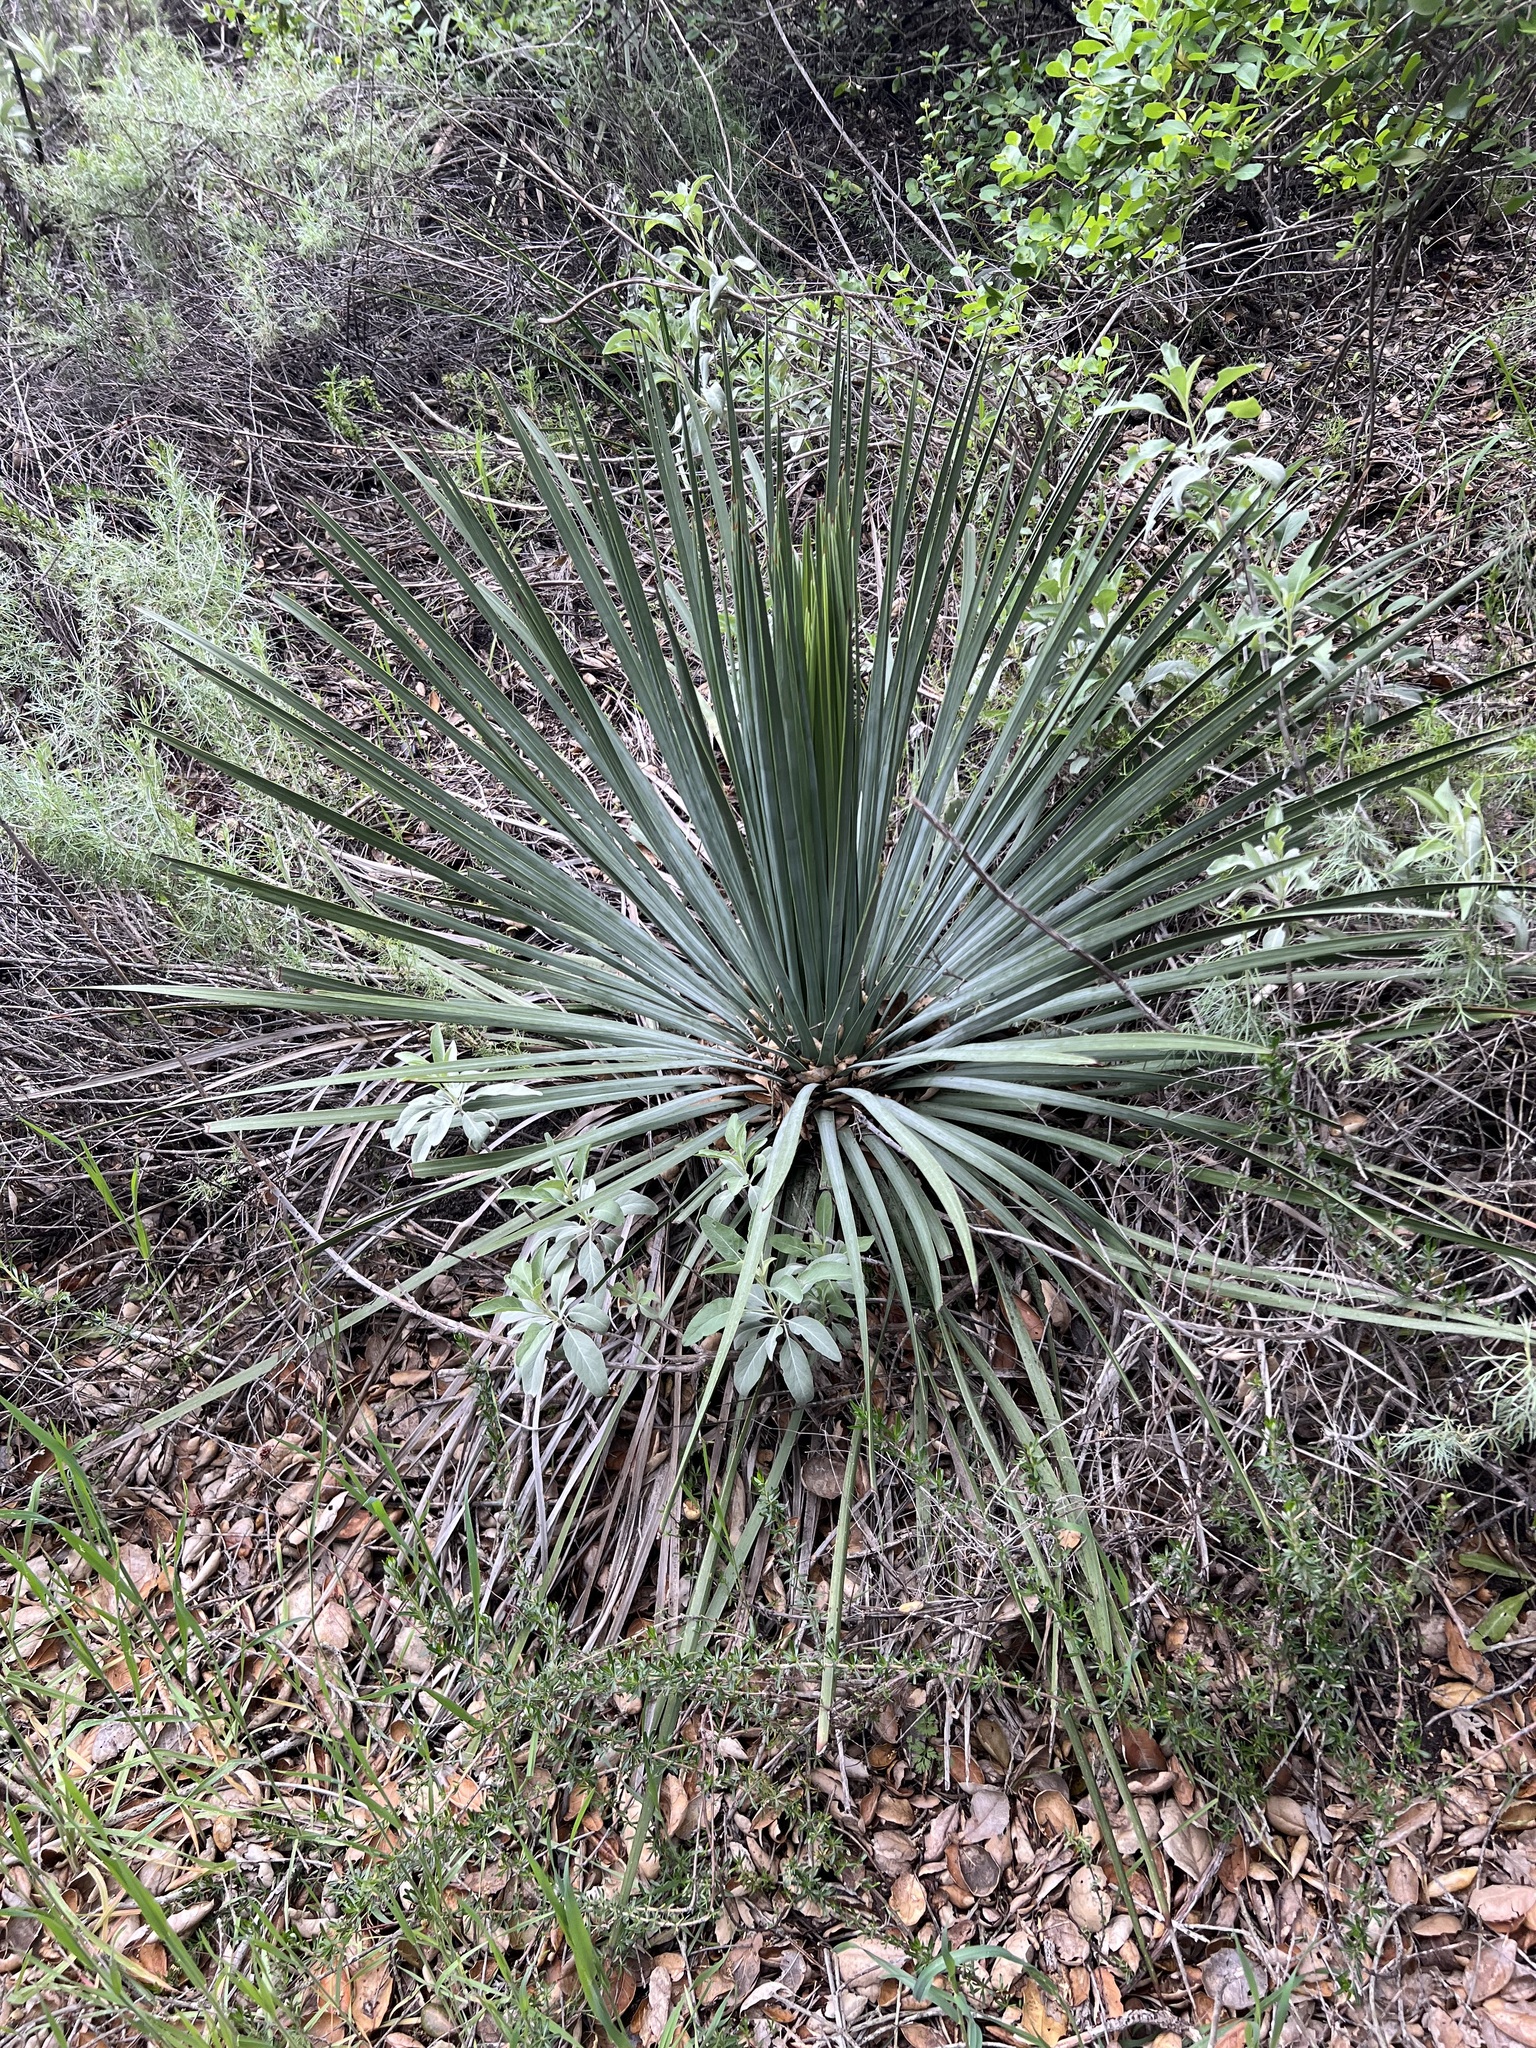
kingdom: Plantae
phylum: Tracheophyta
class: Liliopsida
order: Asparagales
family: Asparagaceae
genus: Hesperoyucca
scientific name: Hesperoyucca whipplei
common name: Our lord's-candle
